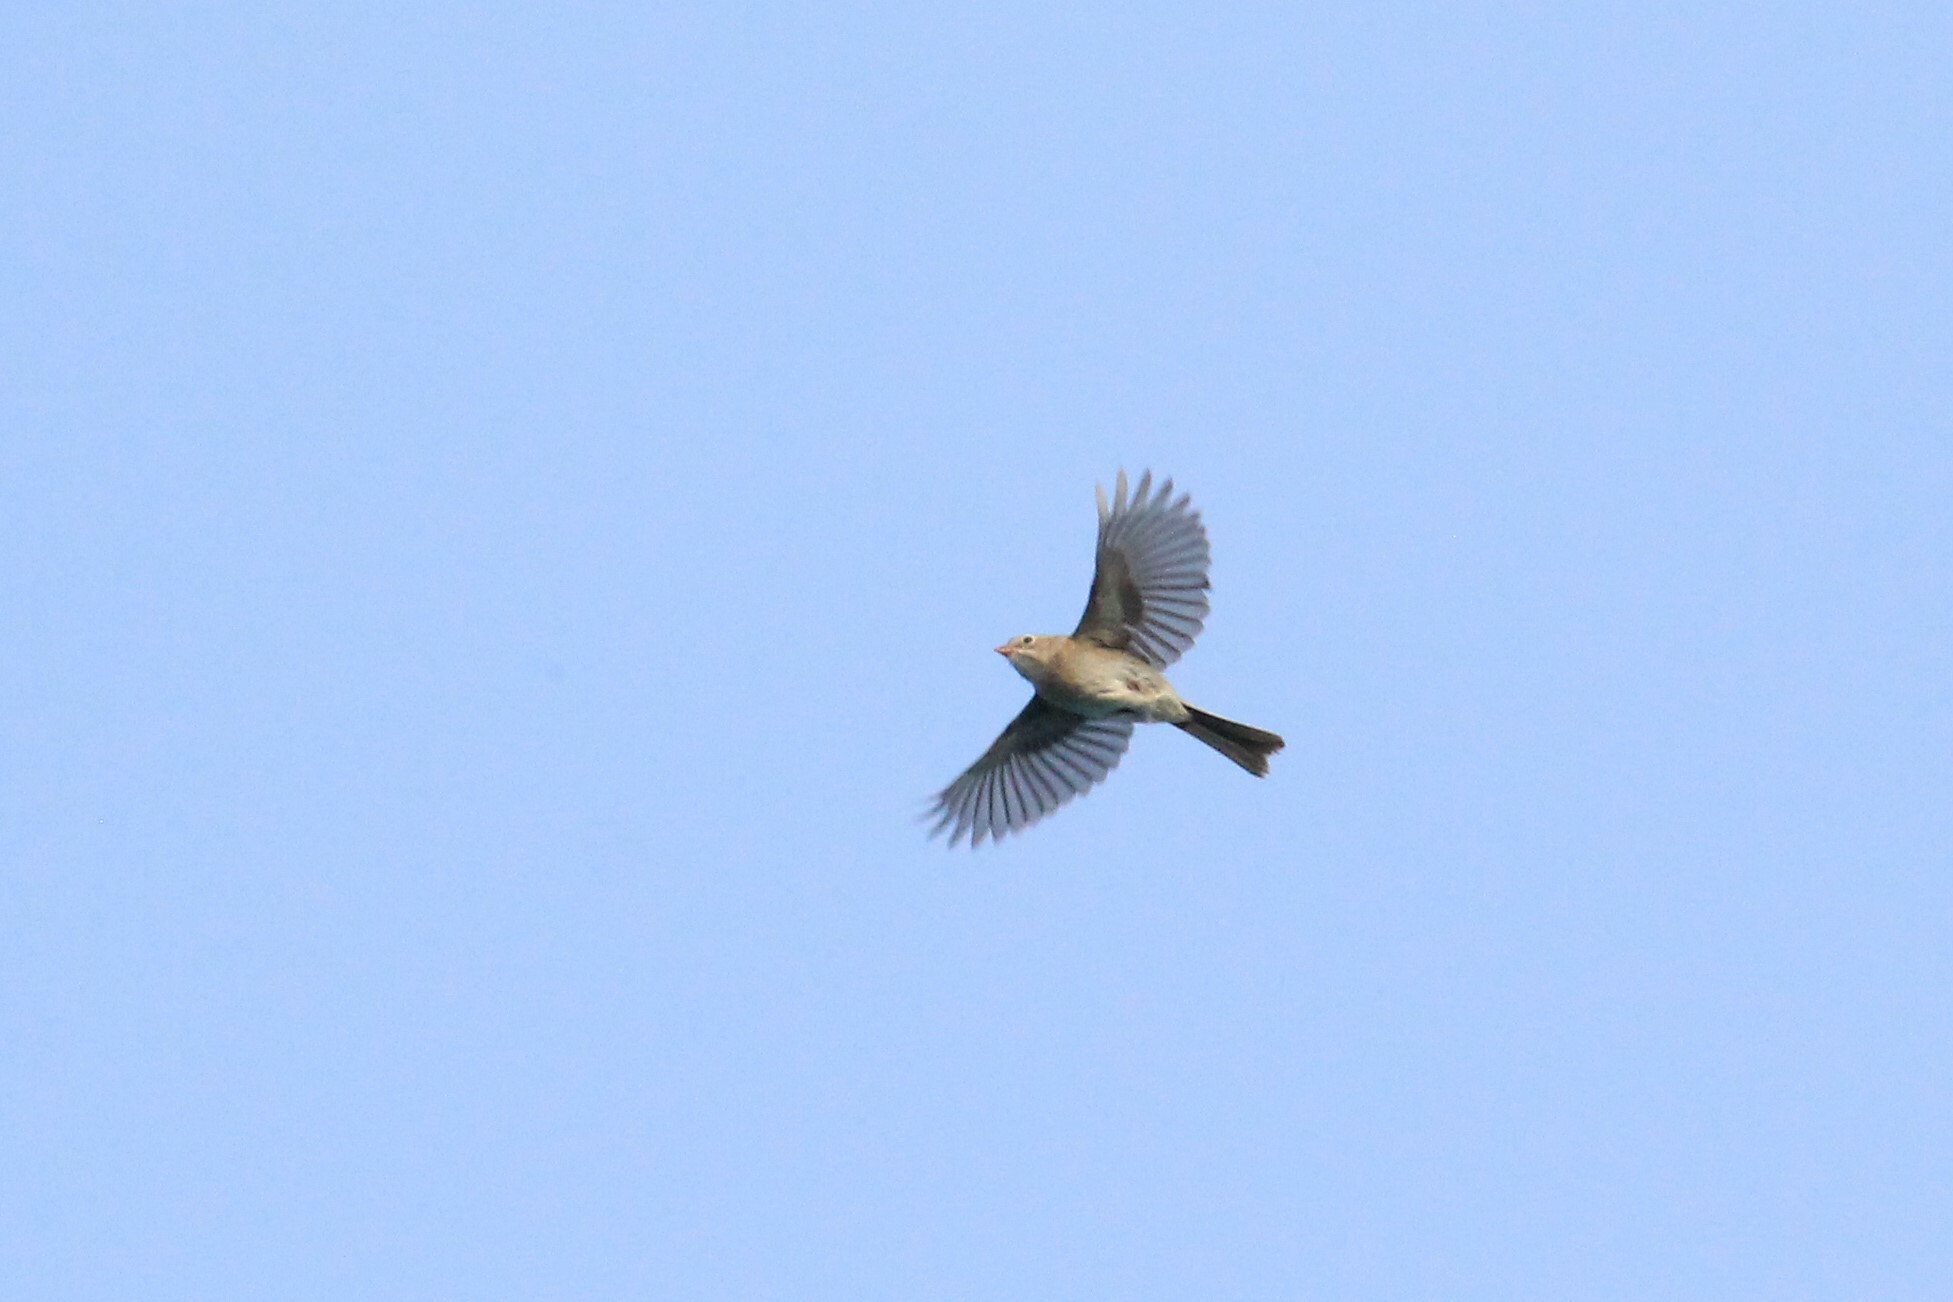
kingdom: Animalia
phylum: Chordata
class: Aves
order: Passeriformes
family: Passerellidae
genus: Spizella
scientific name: Spizella pusilla
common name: Field sparrow
